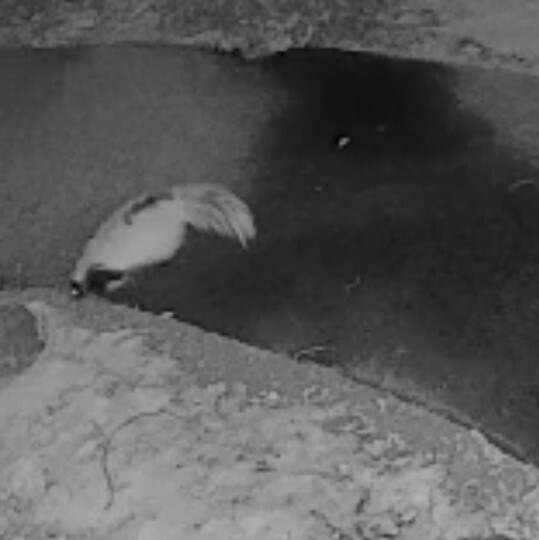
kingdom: Animalia
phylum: Chordata
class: Mammalia
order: Carnivora
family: Mephitidae
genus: Mephitis
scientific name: Mephitis mephitis
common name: Striped skunk
